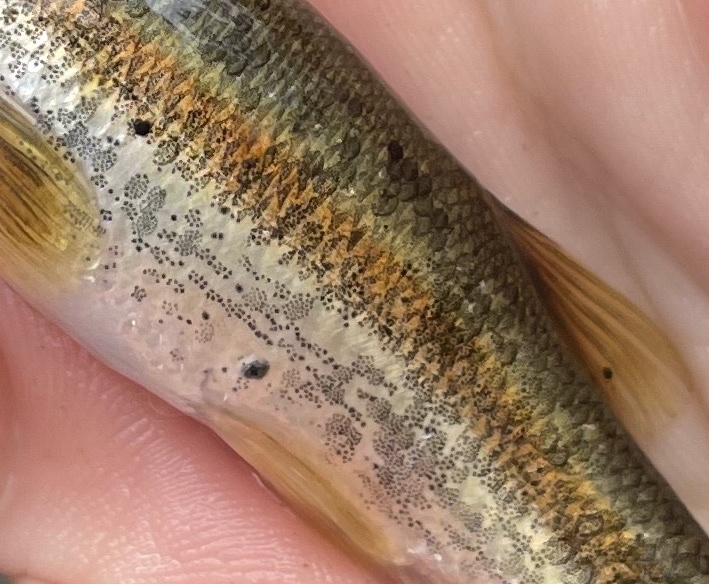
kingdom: Animalia
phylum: Platyhelminthes
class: Trematoda
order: Diplostomida
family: Diplostomidae
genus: Neascus
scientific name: Neascus
